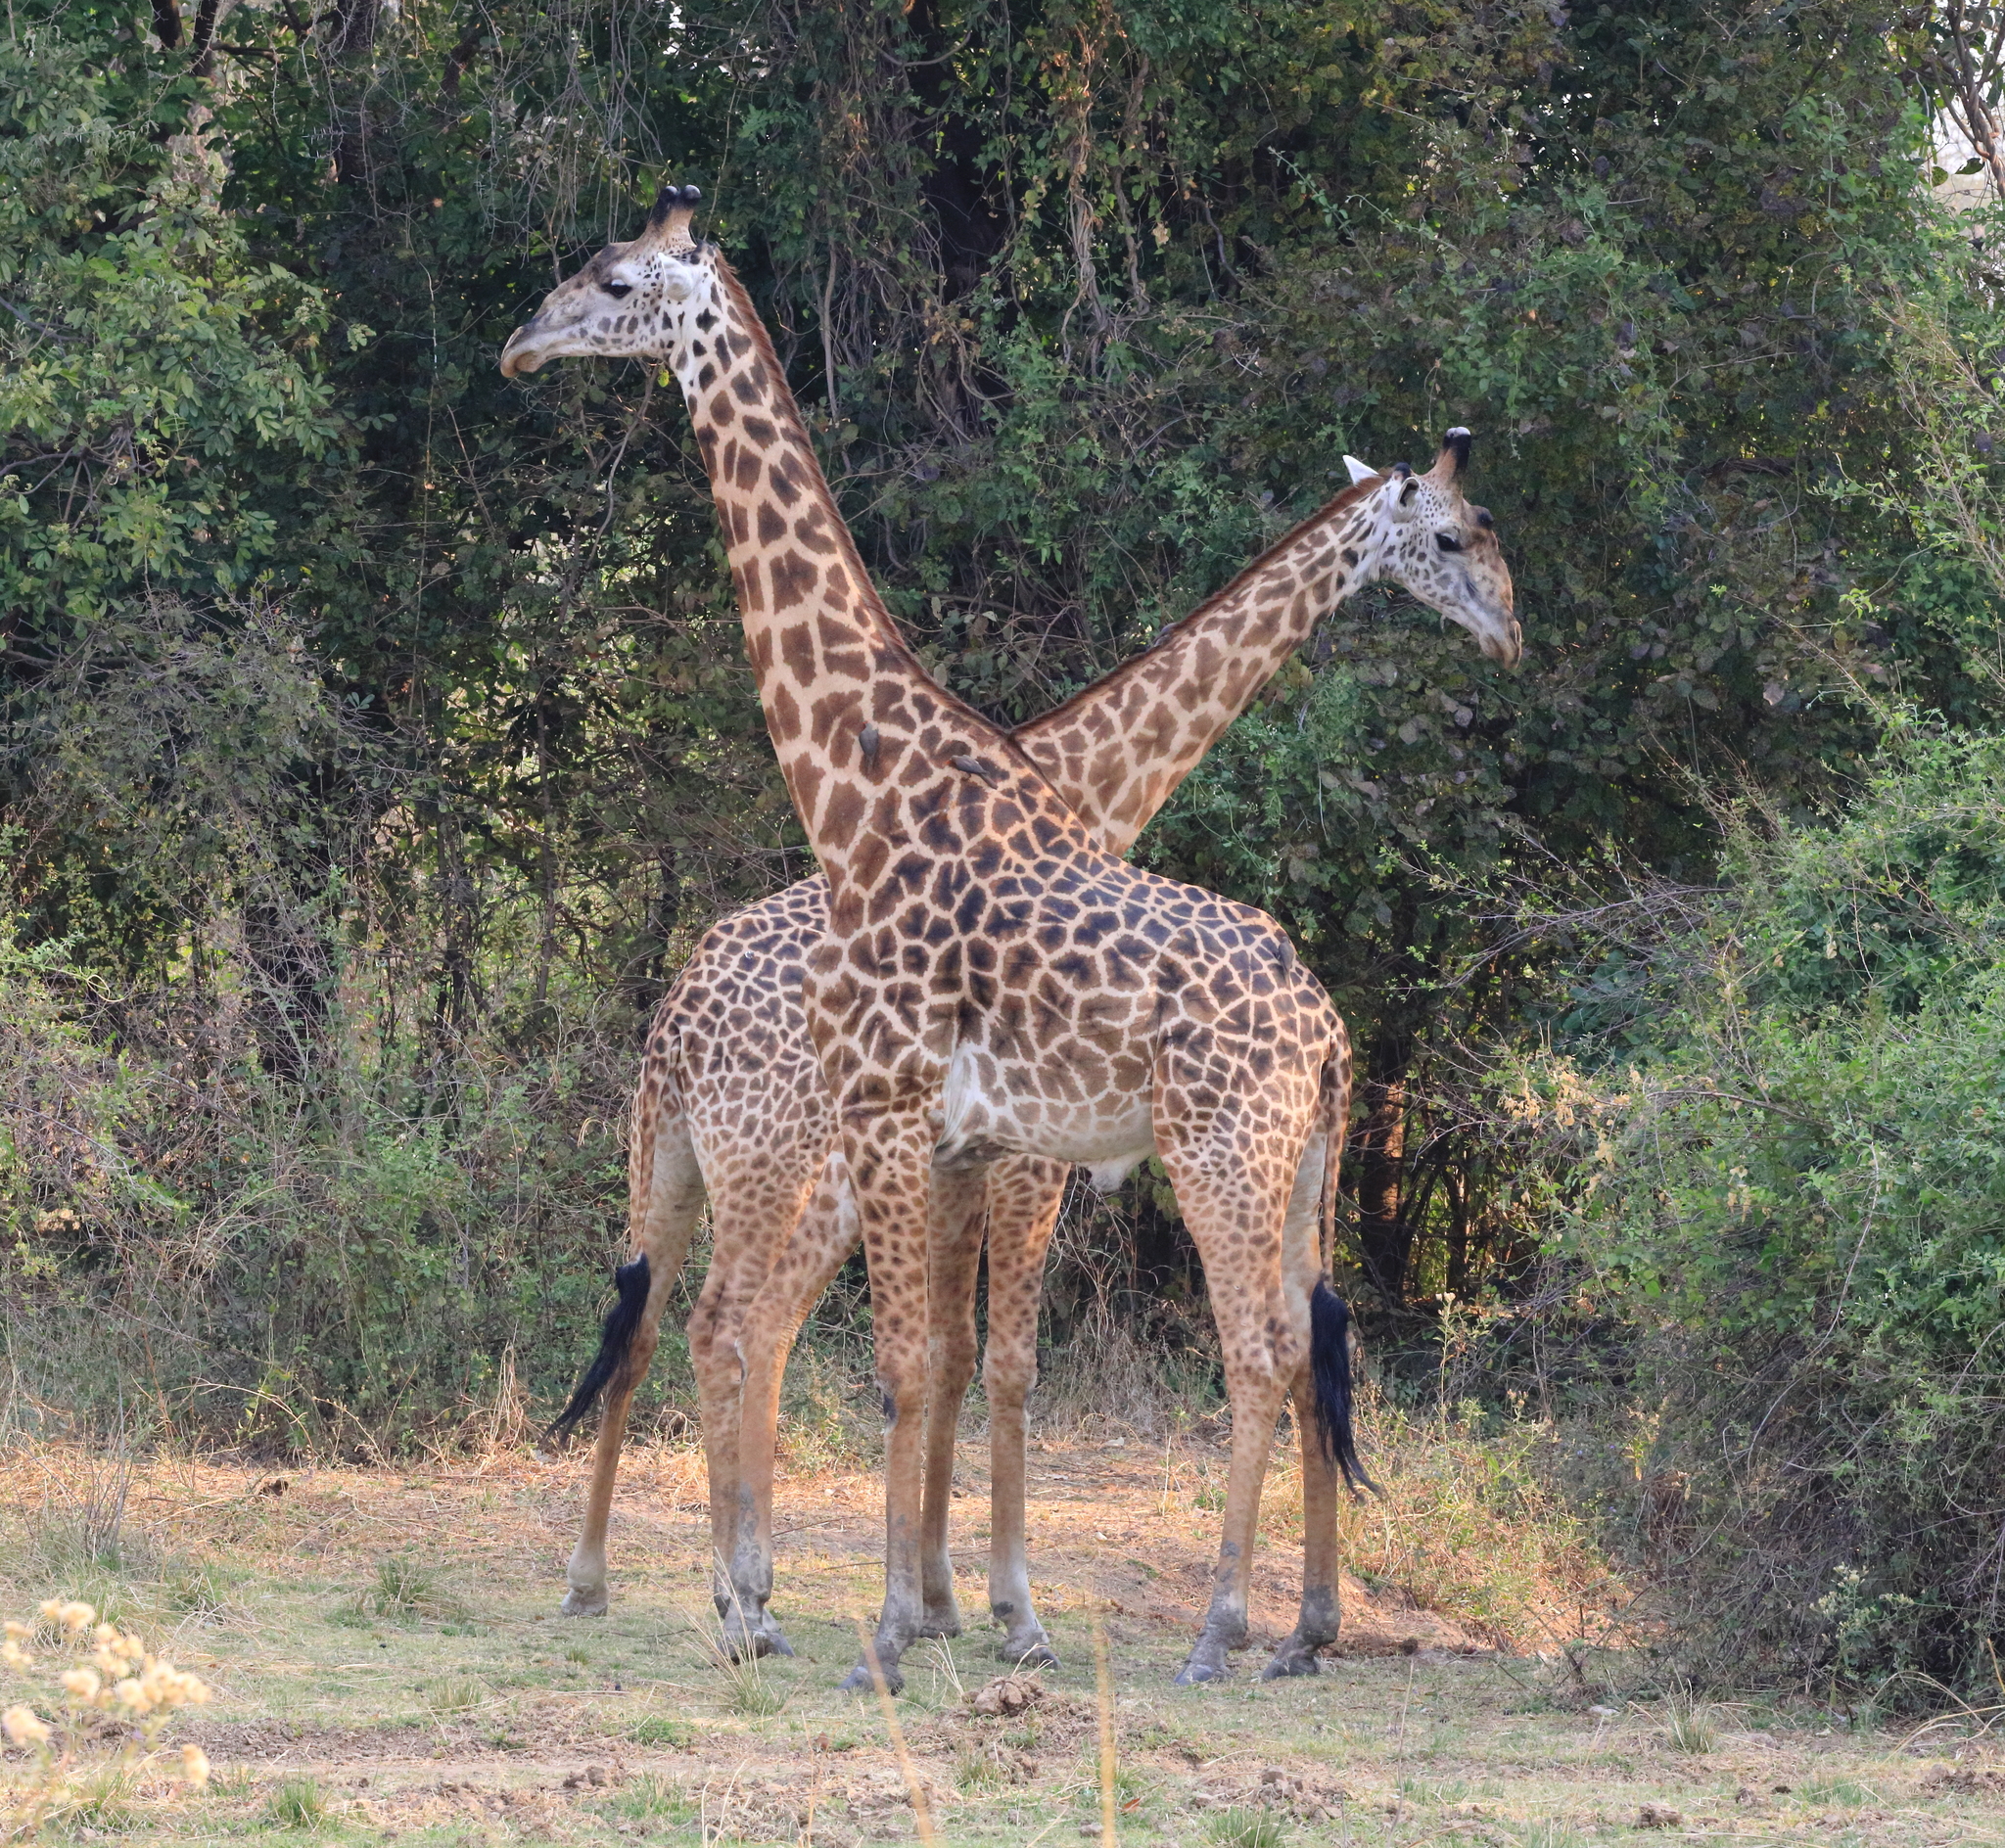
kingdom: Animalia
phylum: Chordata
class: Mammalia
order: Artiodactyla
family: Giraffidae
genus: Giraffa
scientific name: Giraffa tippelskirchi
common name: Masai giraffe
